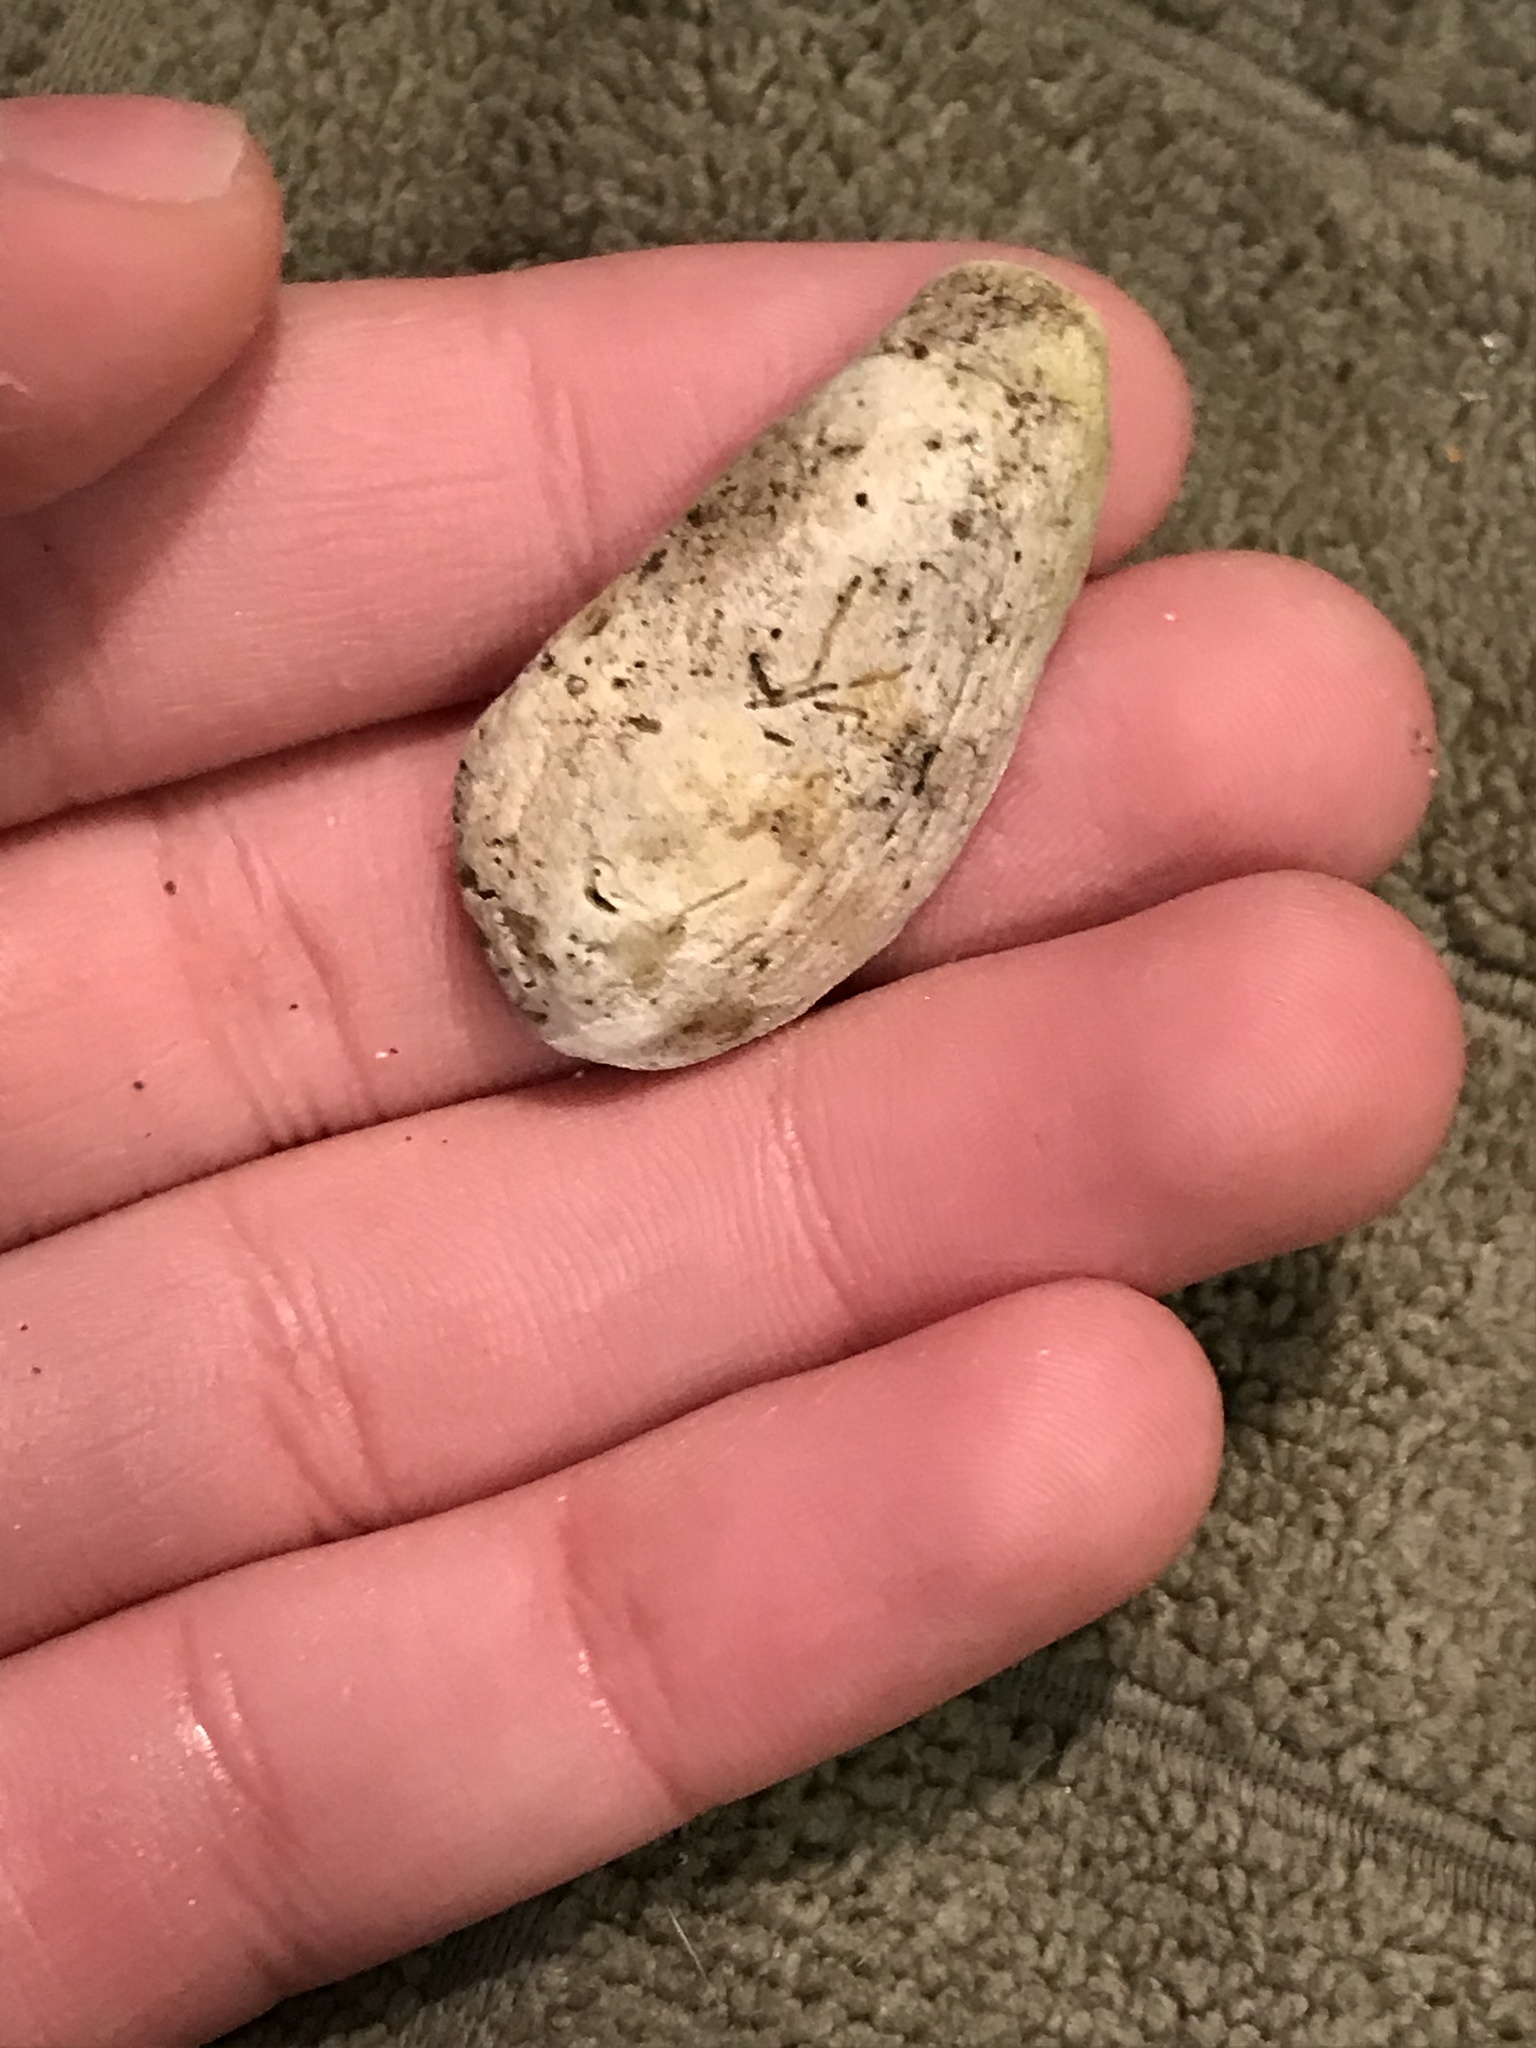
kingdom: Animalia
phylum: Mollusca
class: Bivalvia
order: Adapedonta
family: Hiatellidae
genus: Hiatella
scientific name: Hiatella arctica
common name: Arctic hiatella
